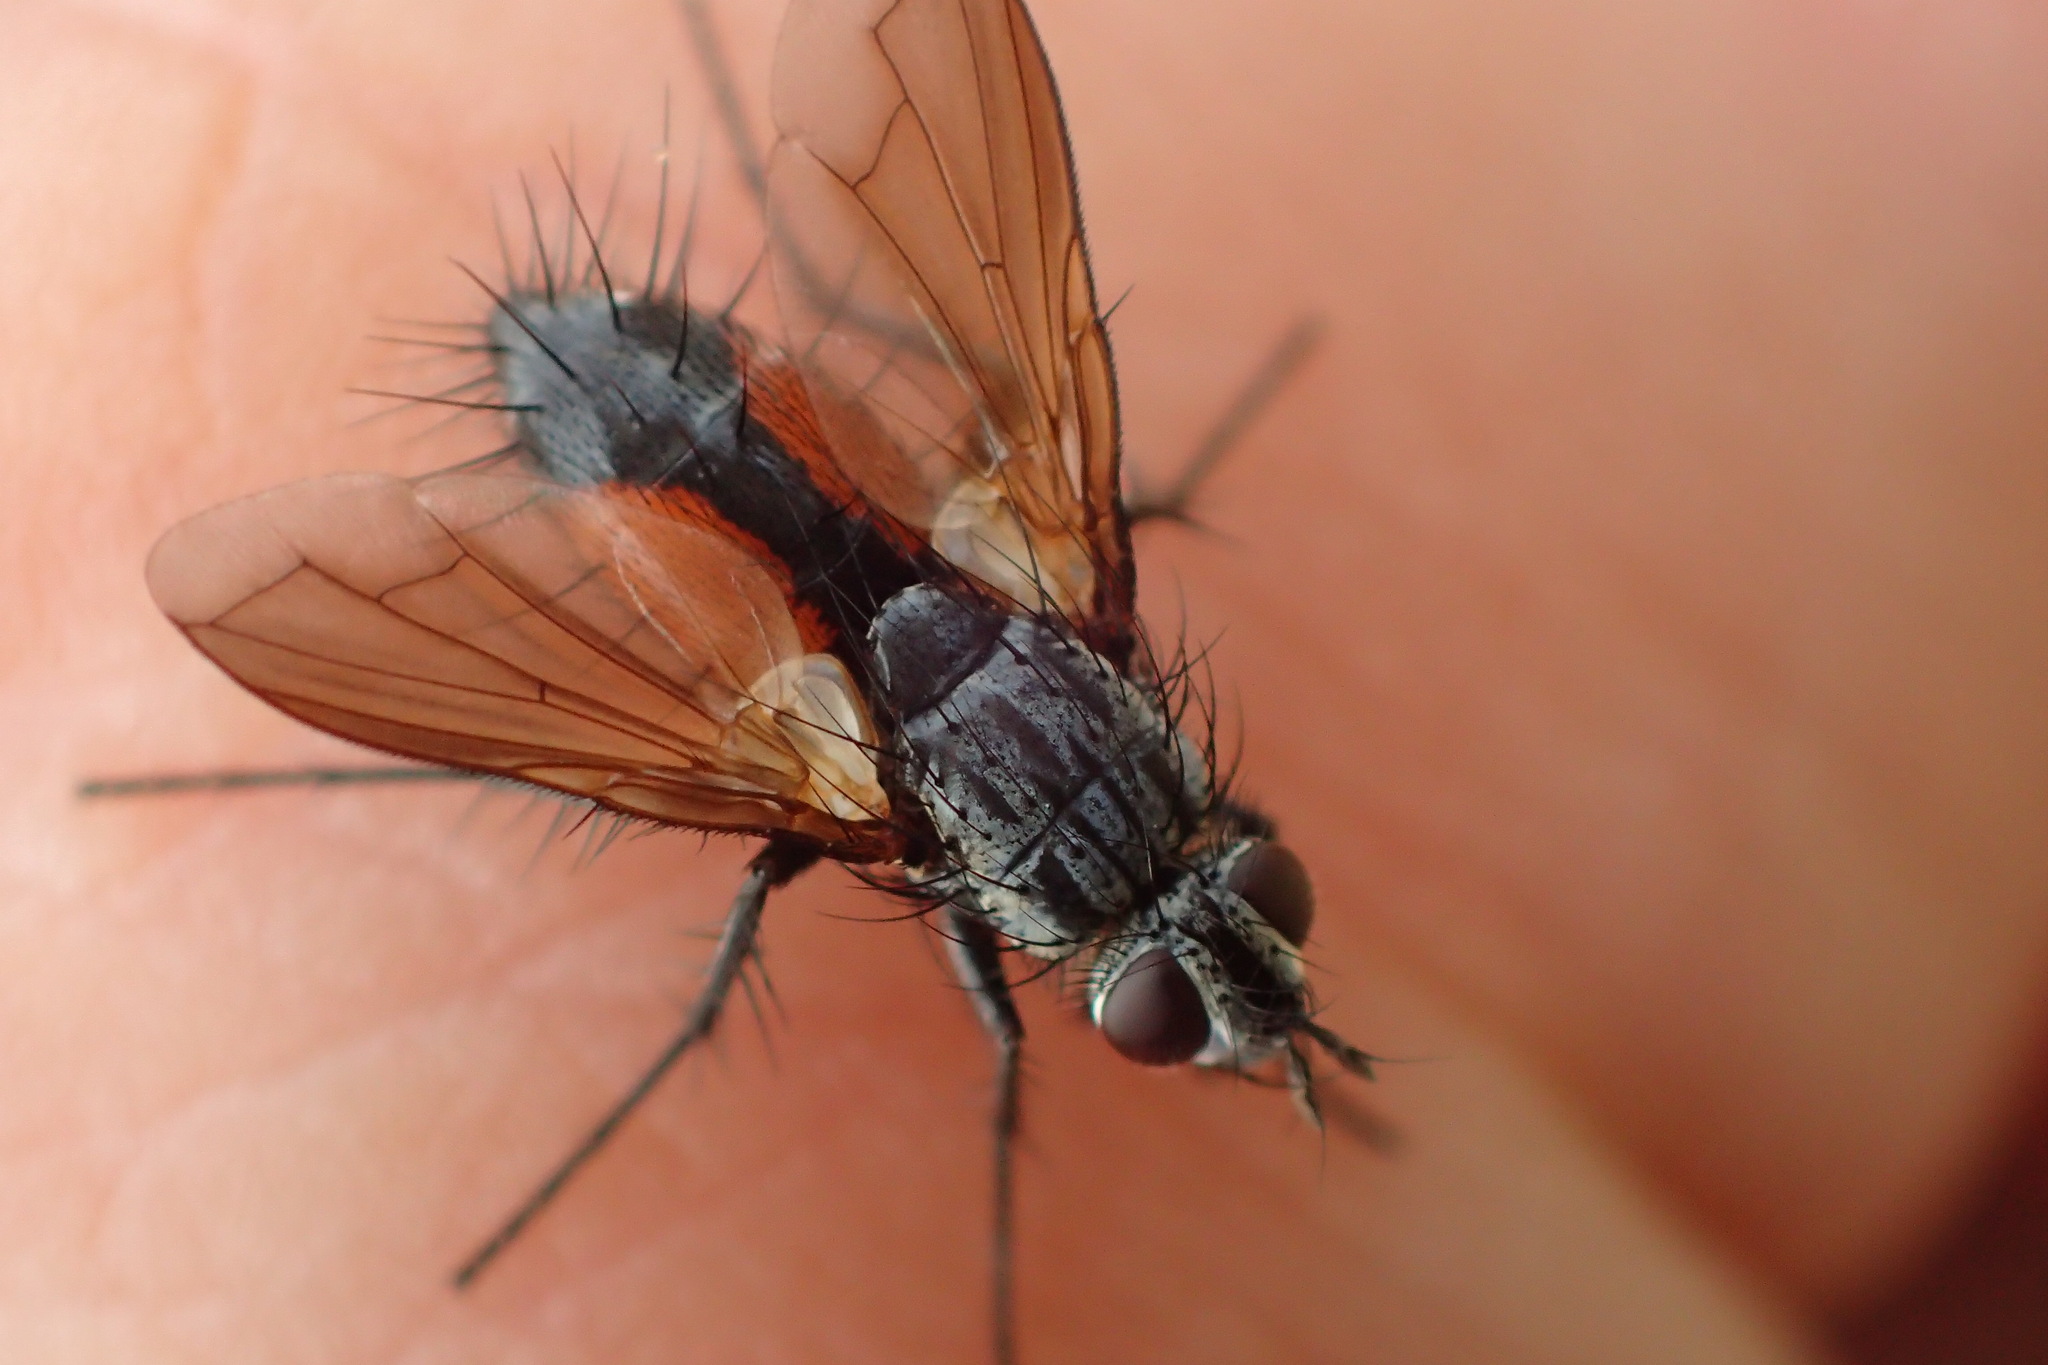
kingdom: Animalia
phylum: Arthropoda
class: Insecta
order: Diptera
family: Tachinidae
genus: Eriothrix
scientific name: Eriothrix rufomaculatus
